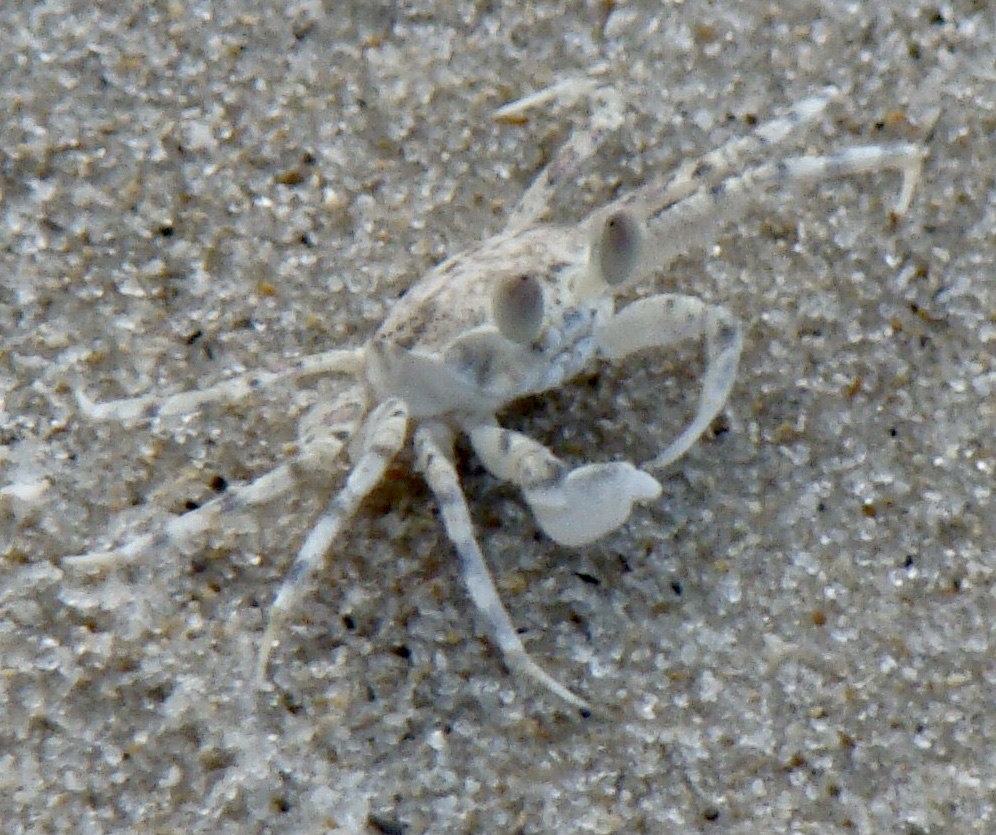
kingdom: Animalia
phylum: Arthropoda
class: Malacostraca
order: Decapoda
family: Ocypodidae
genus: Ocypode
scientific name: Ocypode
